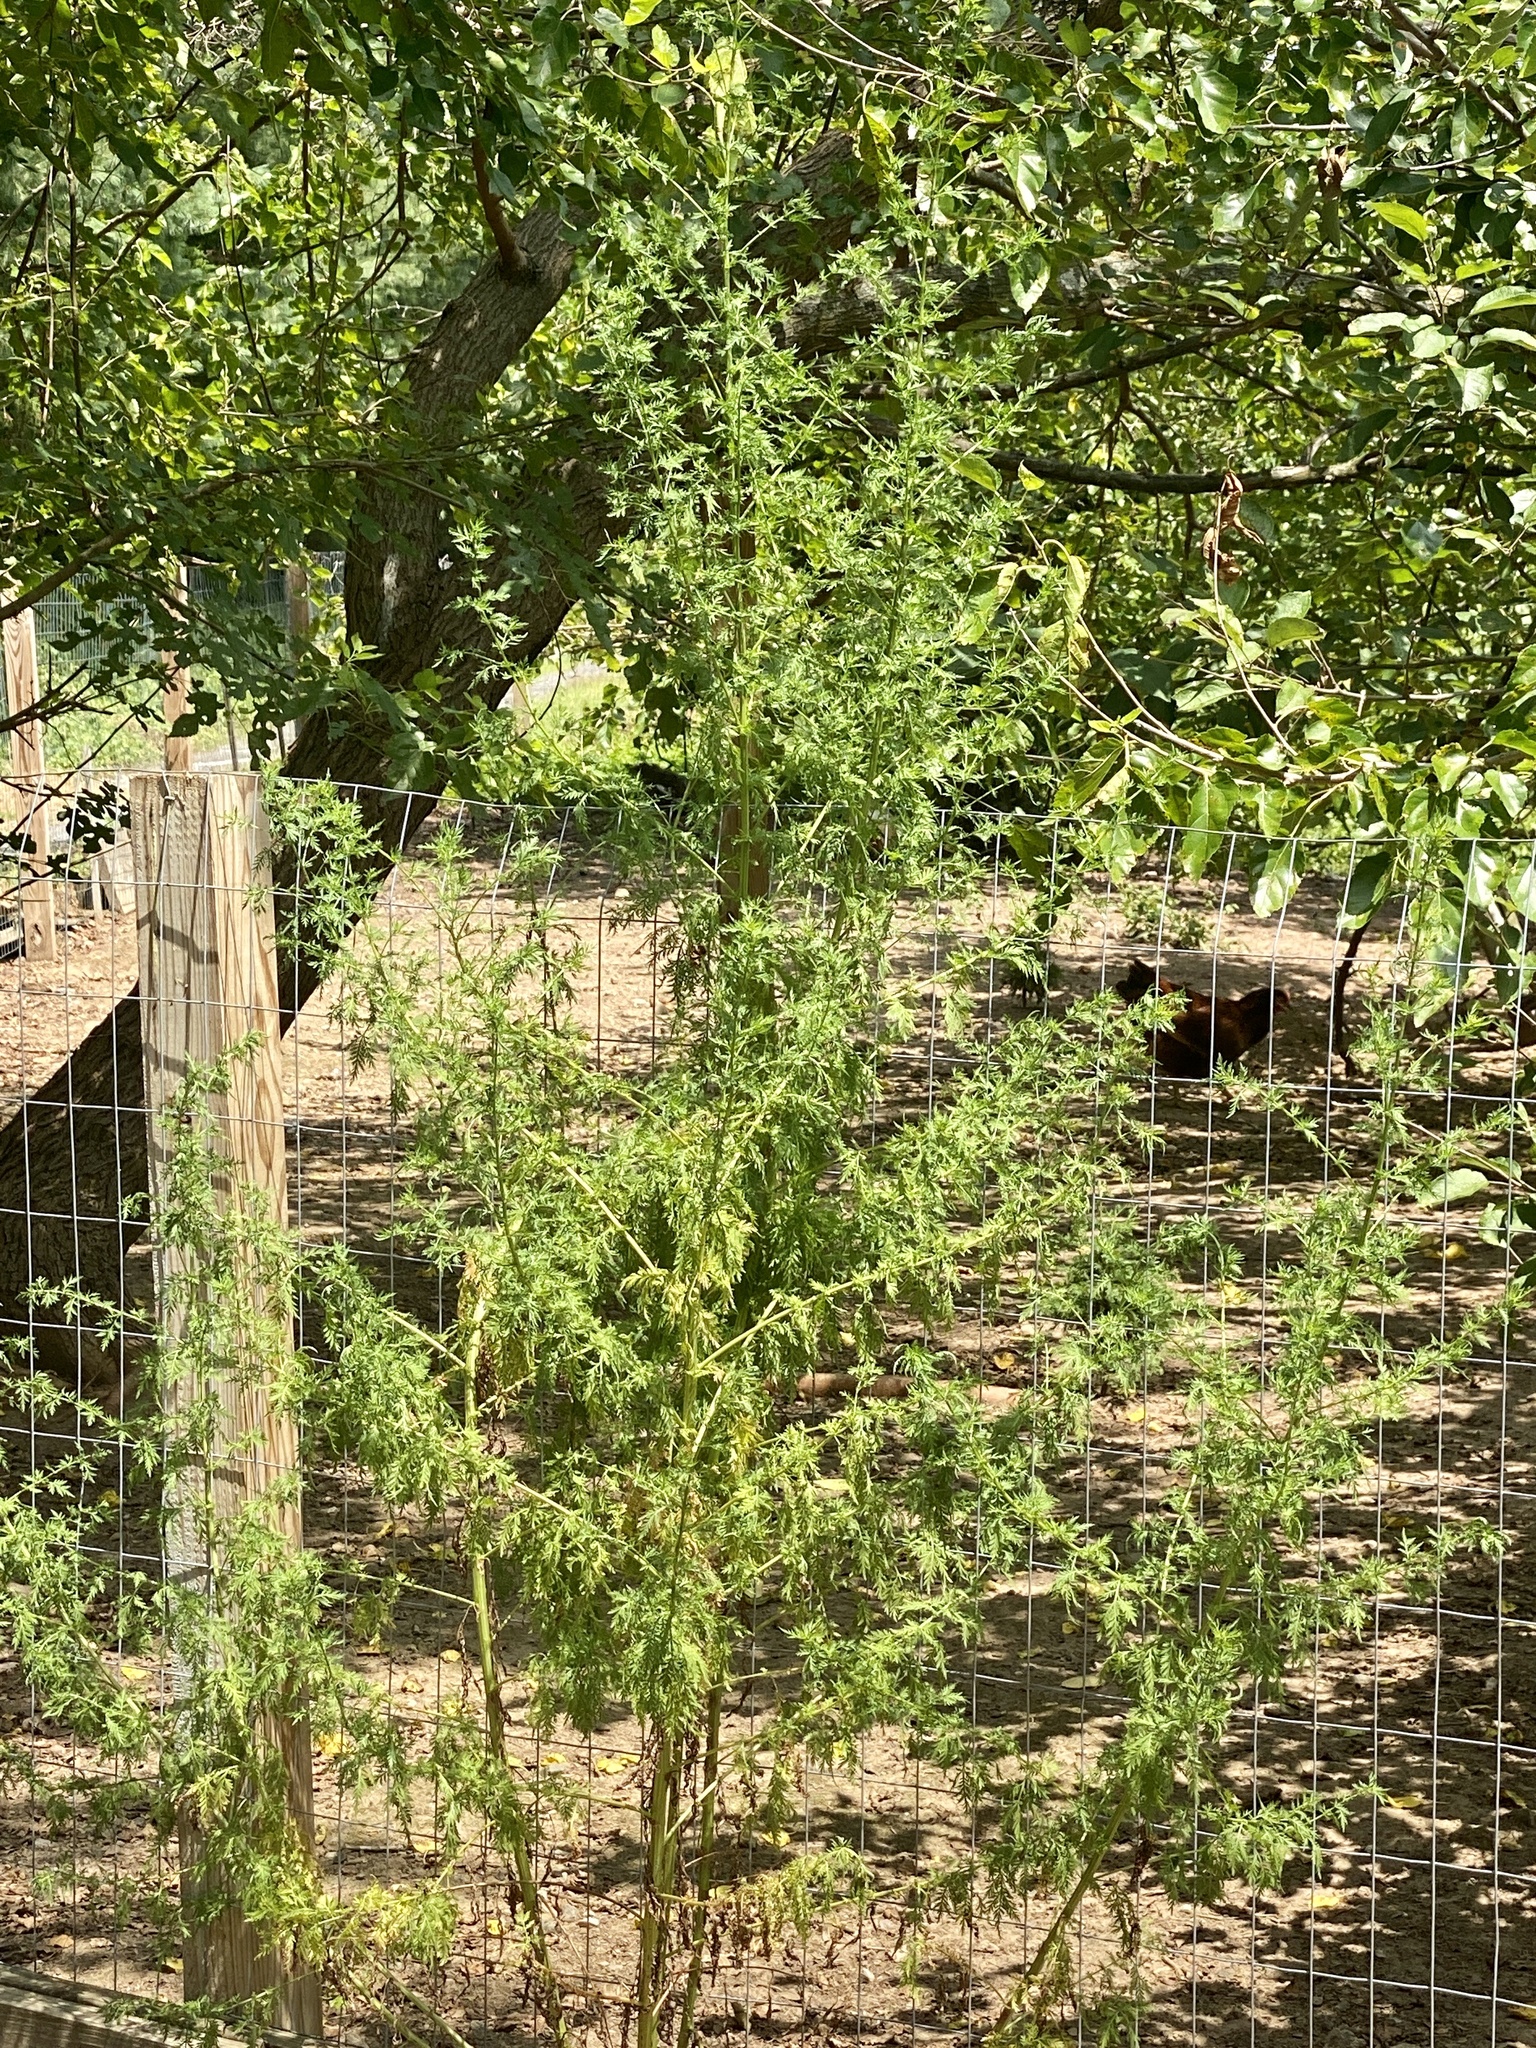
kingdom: Plantae
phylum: Tracheophyta
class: Magnoliopsida
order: Asterales
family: Asteraceae
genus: Artemisia
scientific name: Artemisia annua
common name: Sweet sagewort
